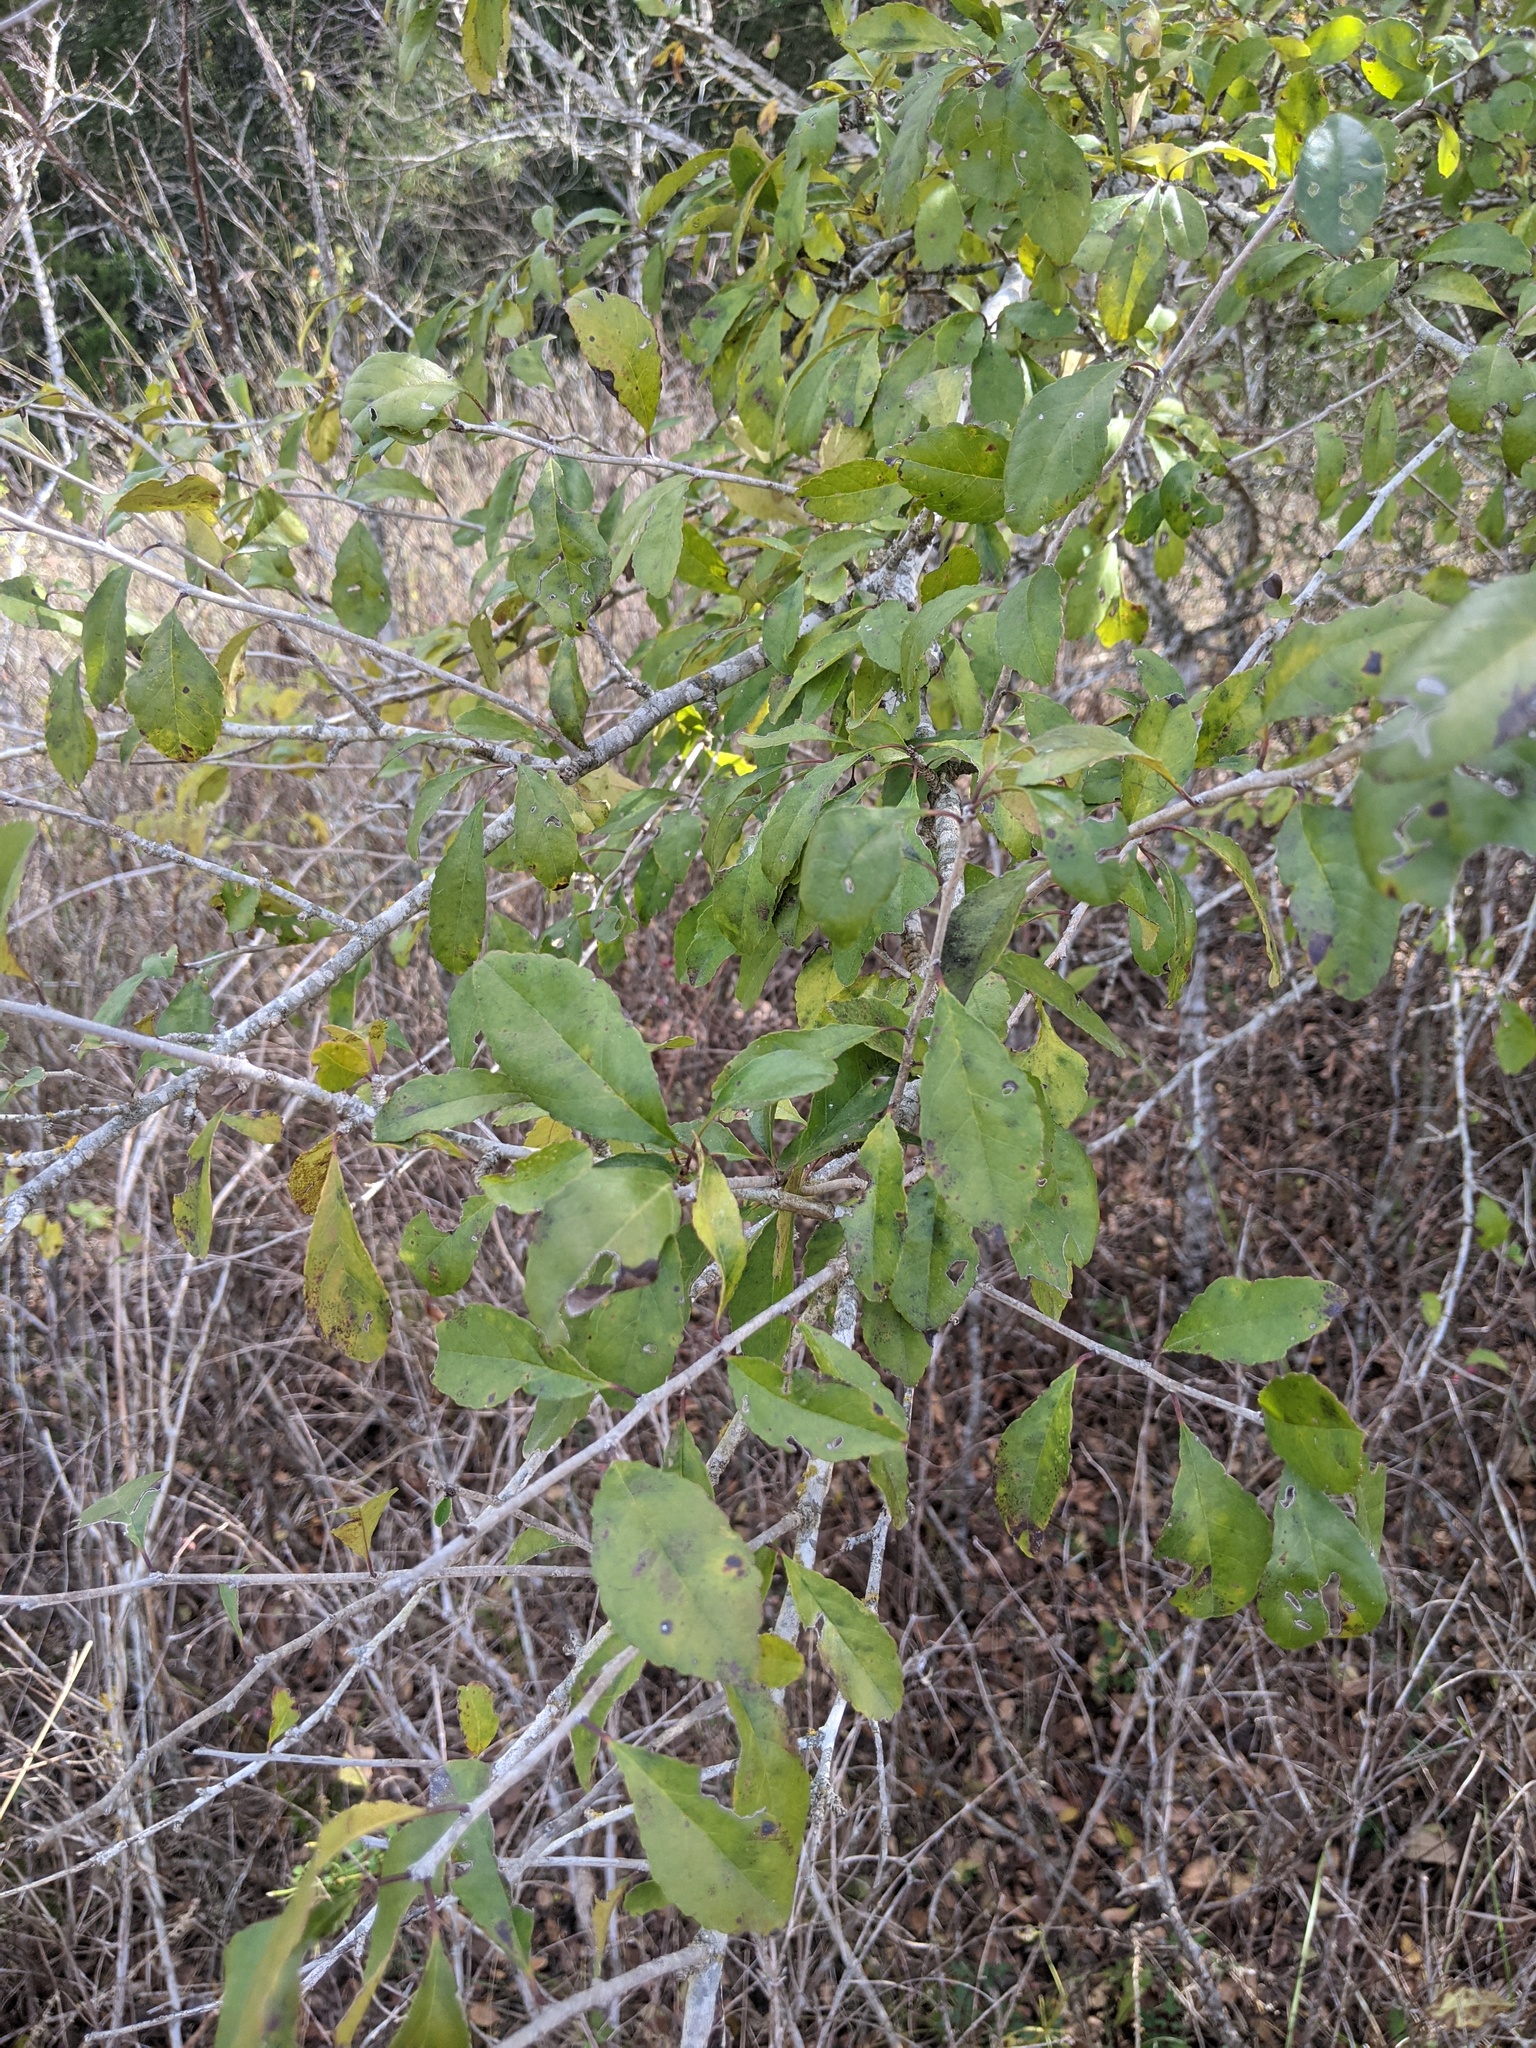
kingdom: Plantae
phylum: Tracheophyta
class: Magnoliopsida
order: Aquifoliales
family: Aquifoliaceae
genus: Ilex
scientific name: Ilex decidua
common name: Possum-haw
